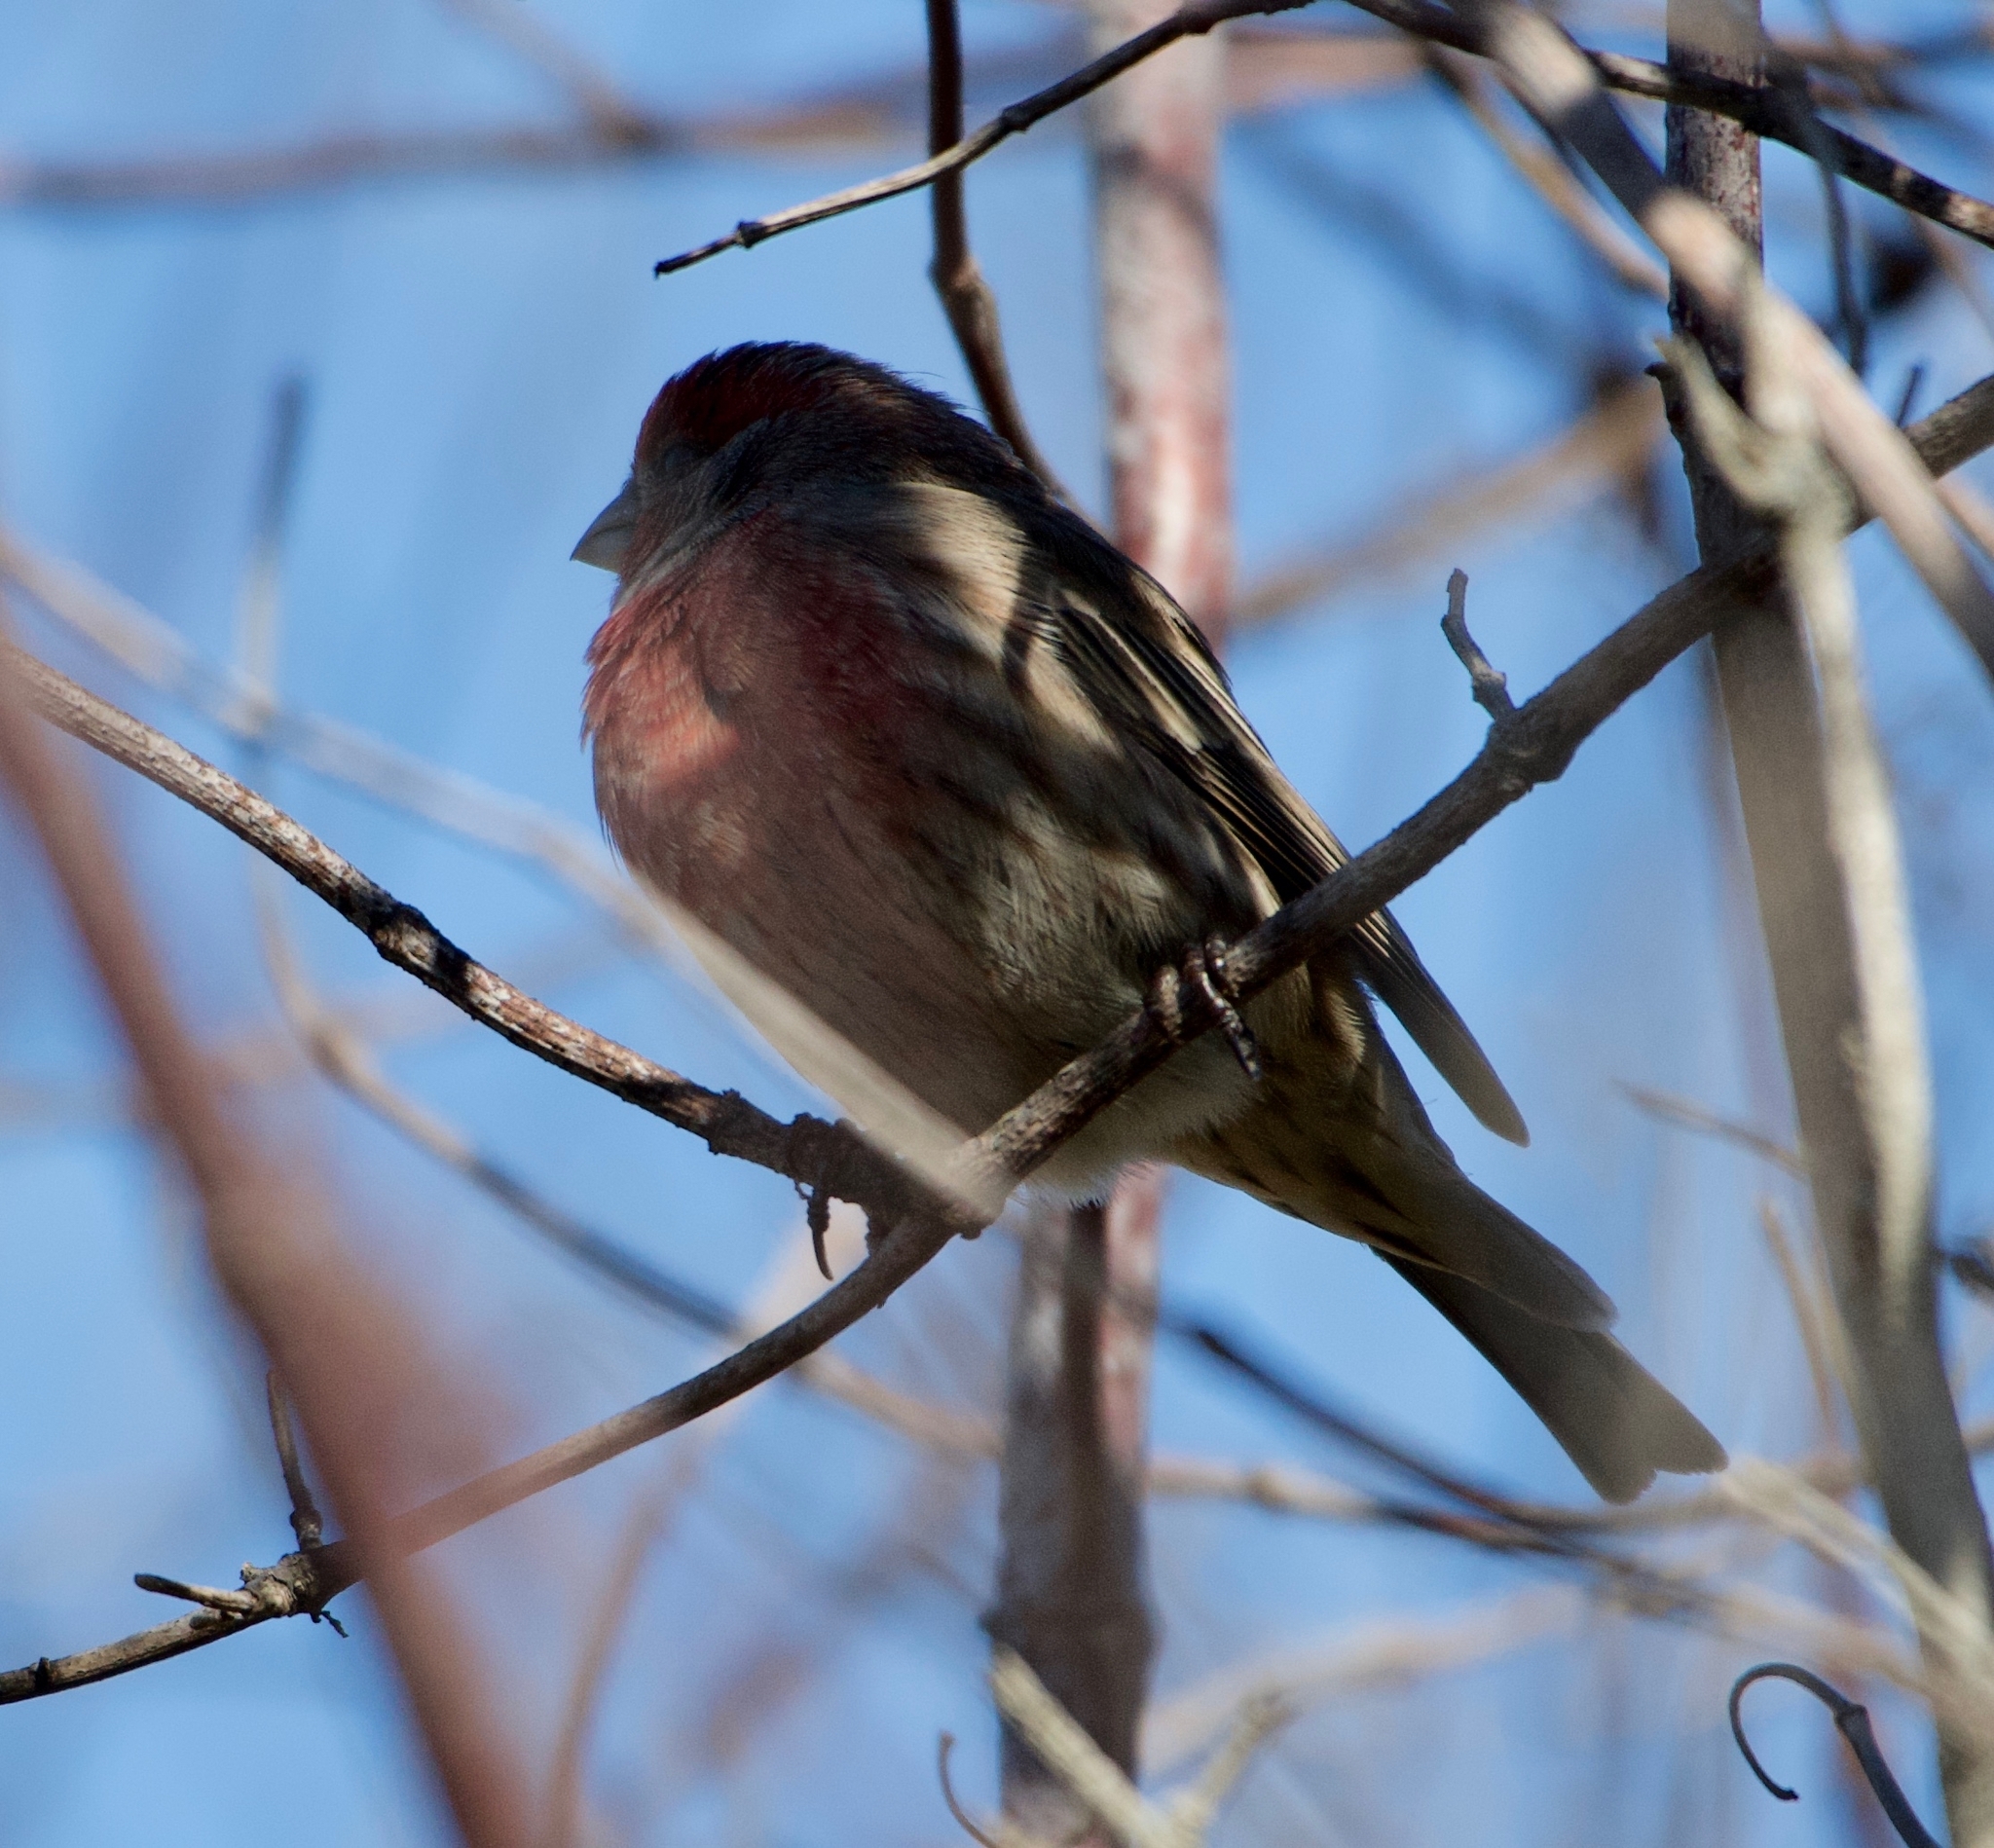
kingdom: Animalia
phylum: Chordata
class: Aves
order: Passeriformes
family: Fringillidae
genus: Haemorhous
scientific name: Haemorhous mexicanus
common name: House finch
